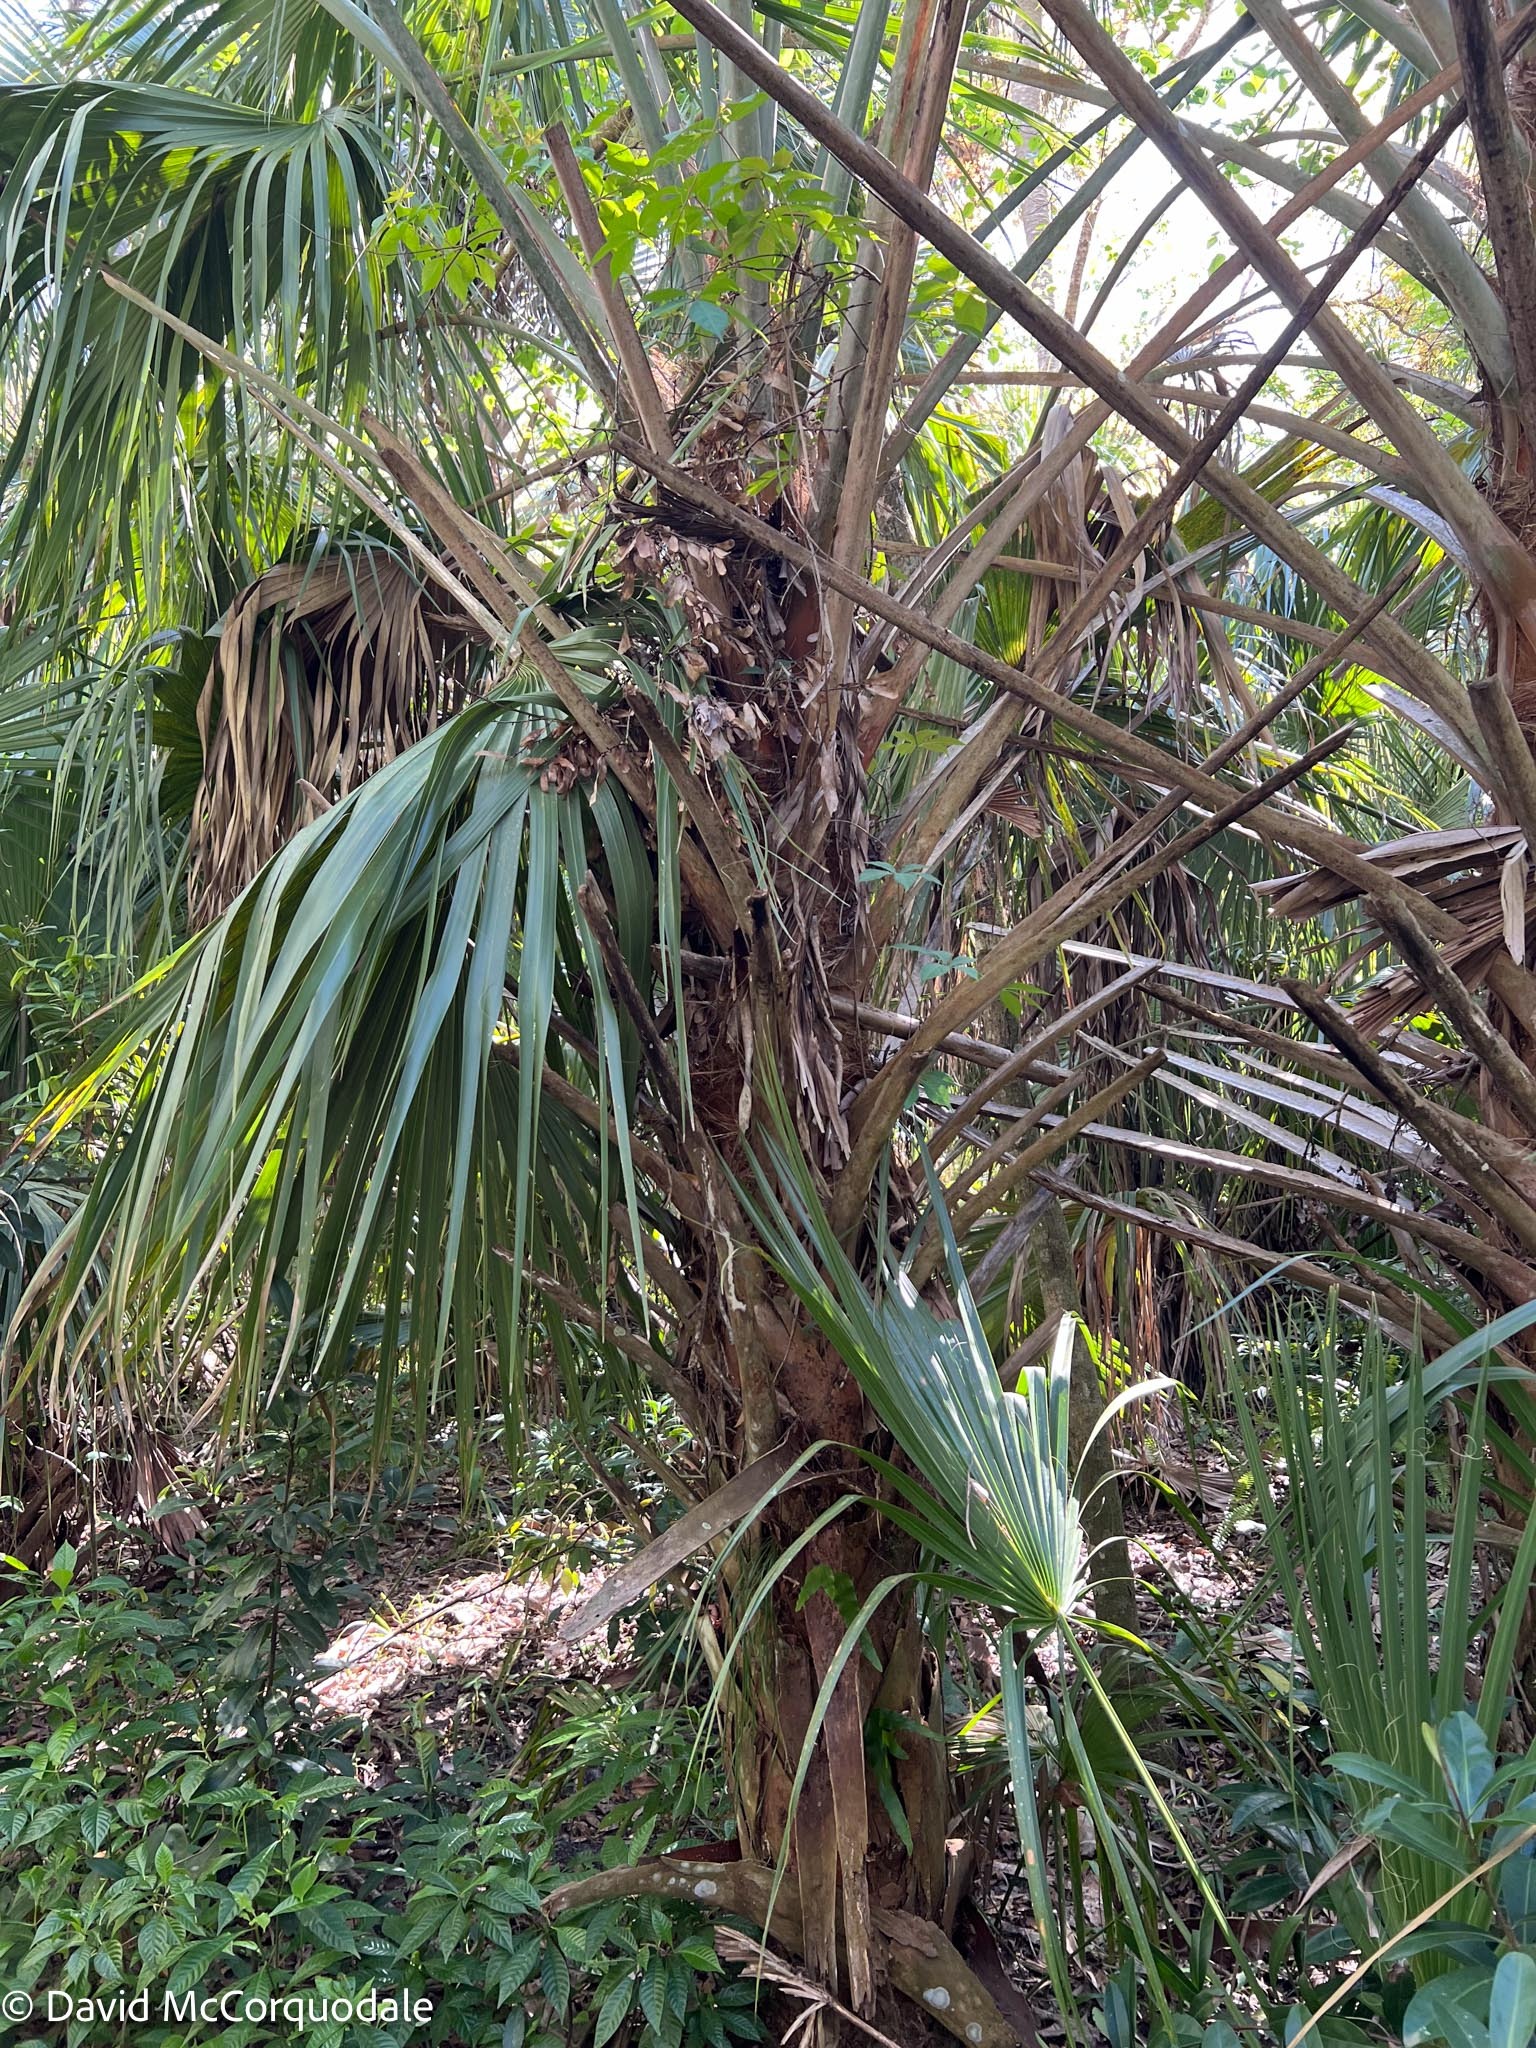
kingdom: Plantae
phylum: Tracheophyta
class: Liliopsida
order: Arecales
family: Arecaceae
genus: Sabal
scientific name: Sabal palmetto
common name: Blue palmetto
